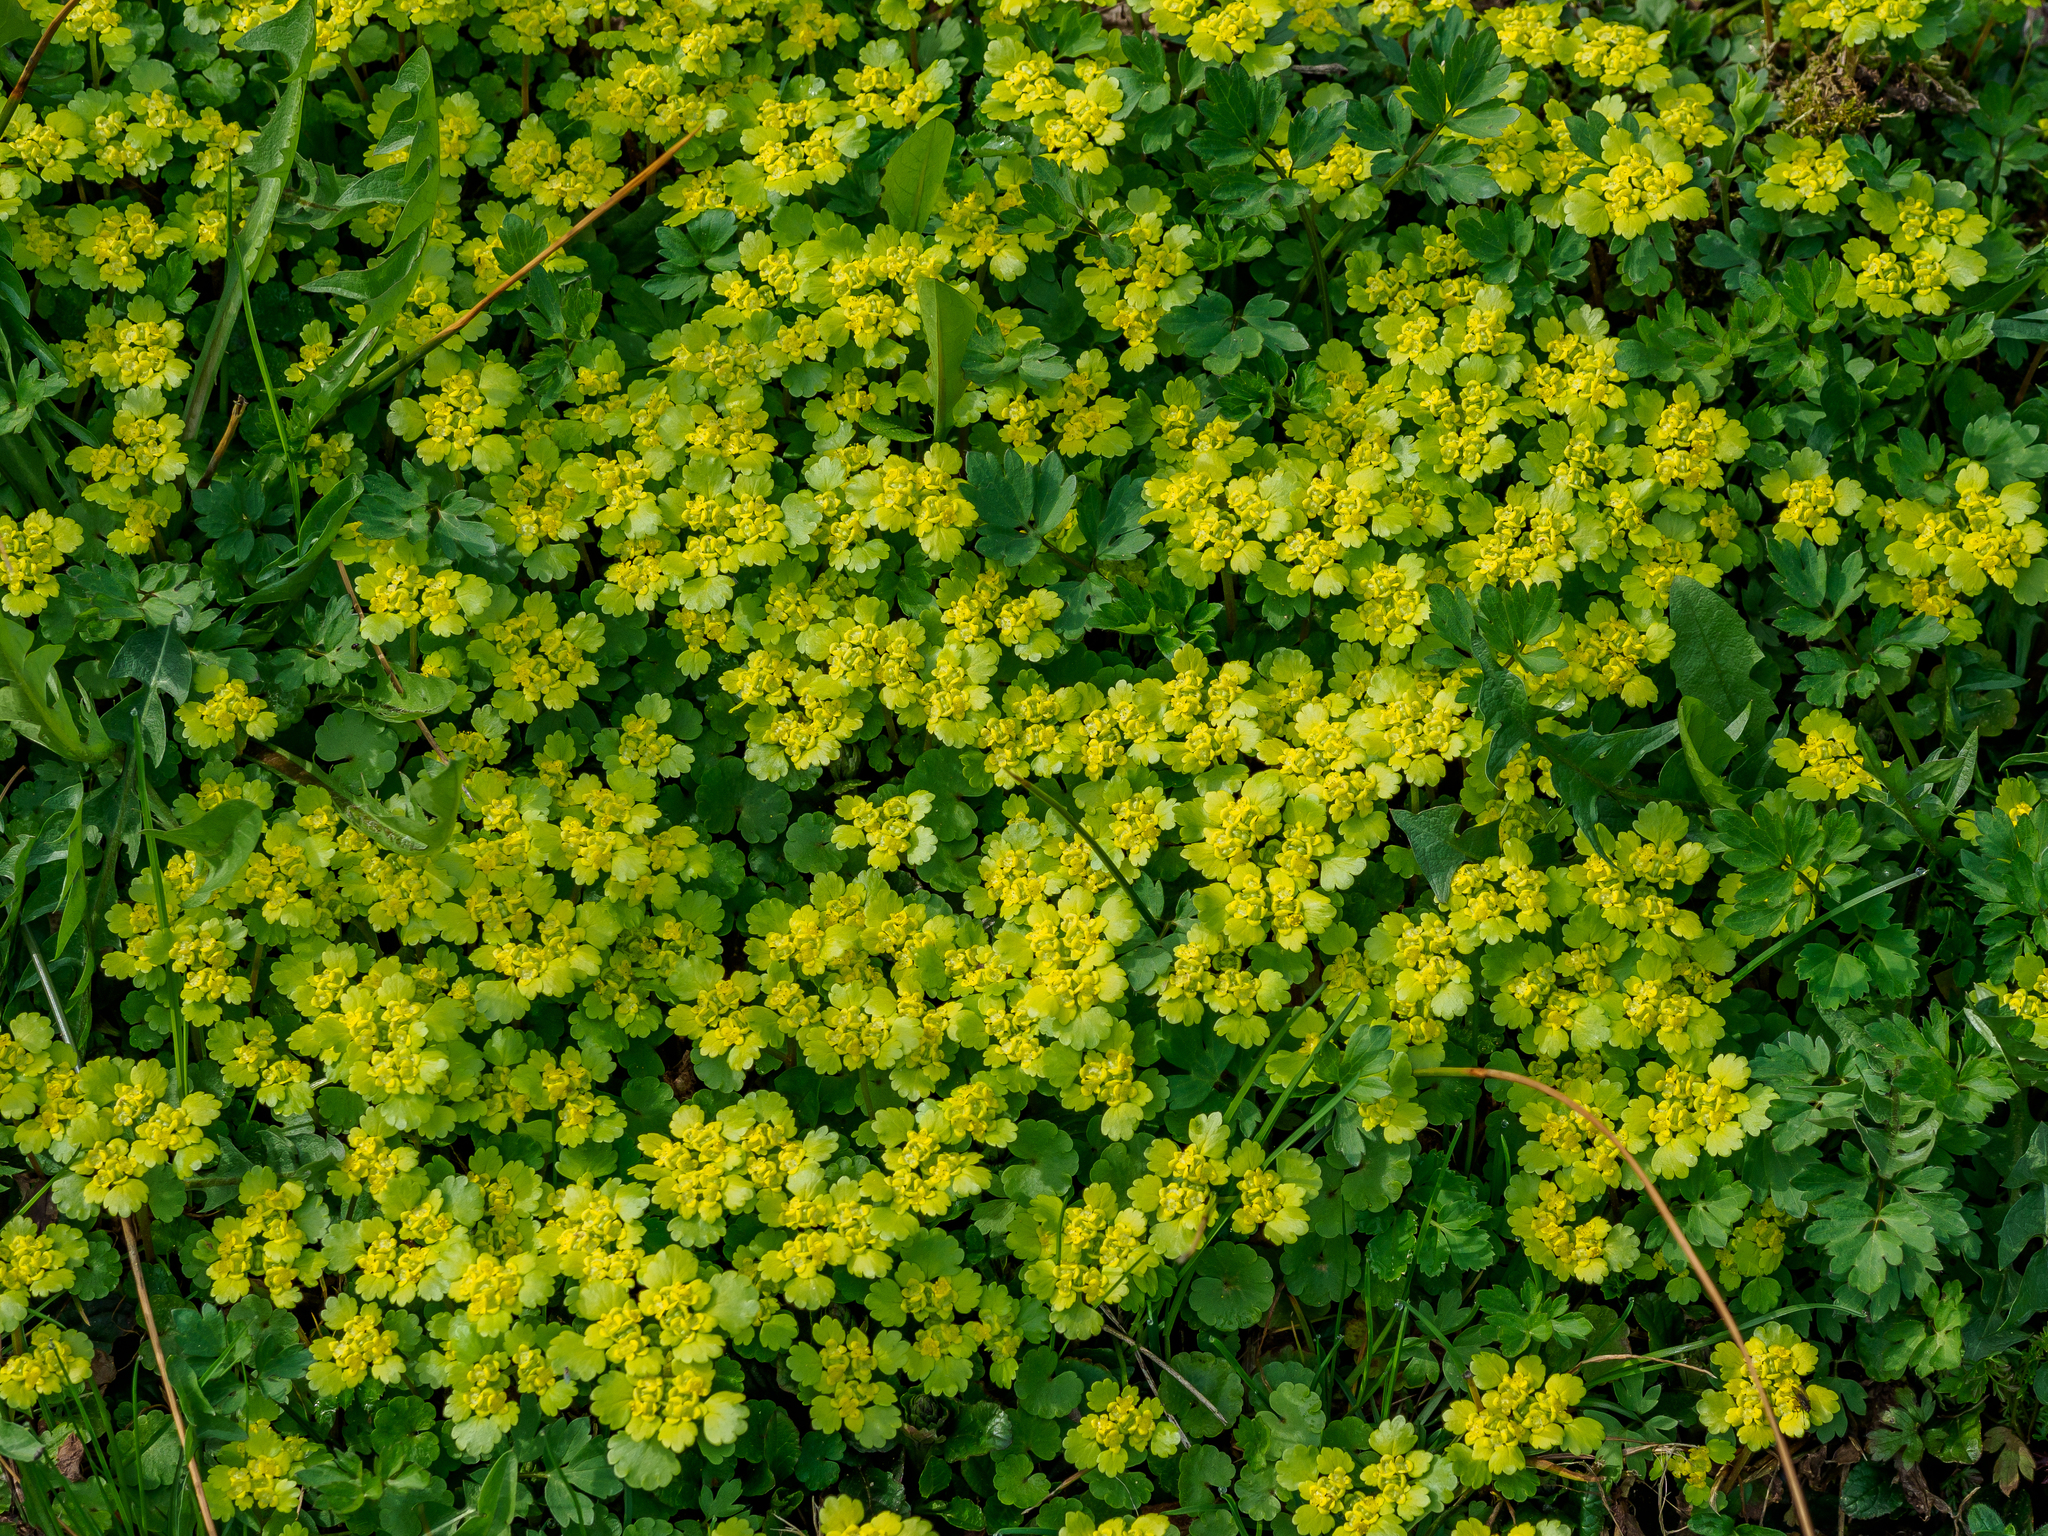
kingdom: Plantae
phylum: Tracheophyta
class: Magnoliopsida
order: Saxifragales
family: Saxifragaceae
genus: Chrysosplenium
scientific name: Chrysosplenium alternifolium
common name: Alternate-leaved golden-saxifrage
